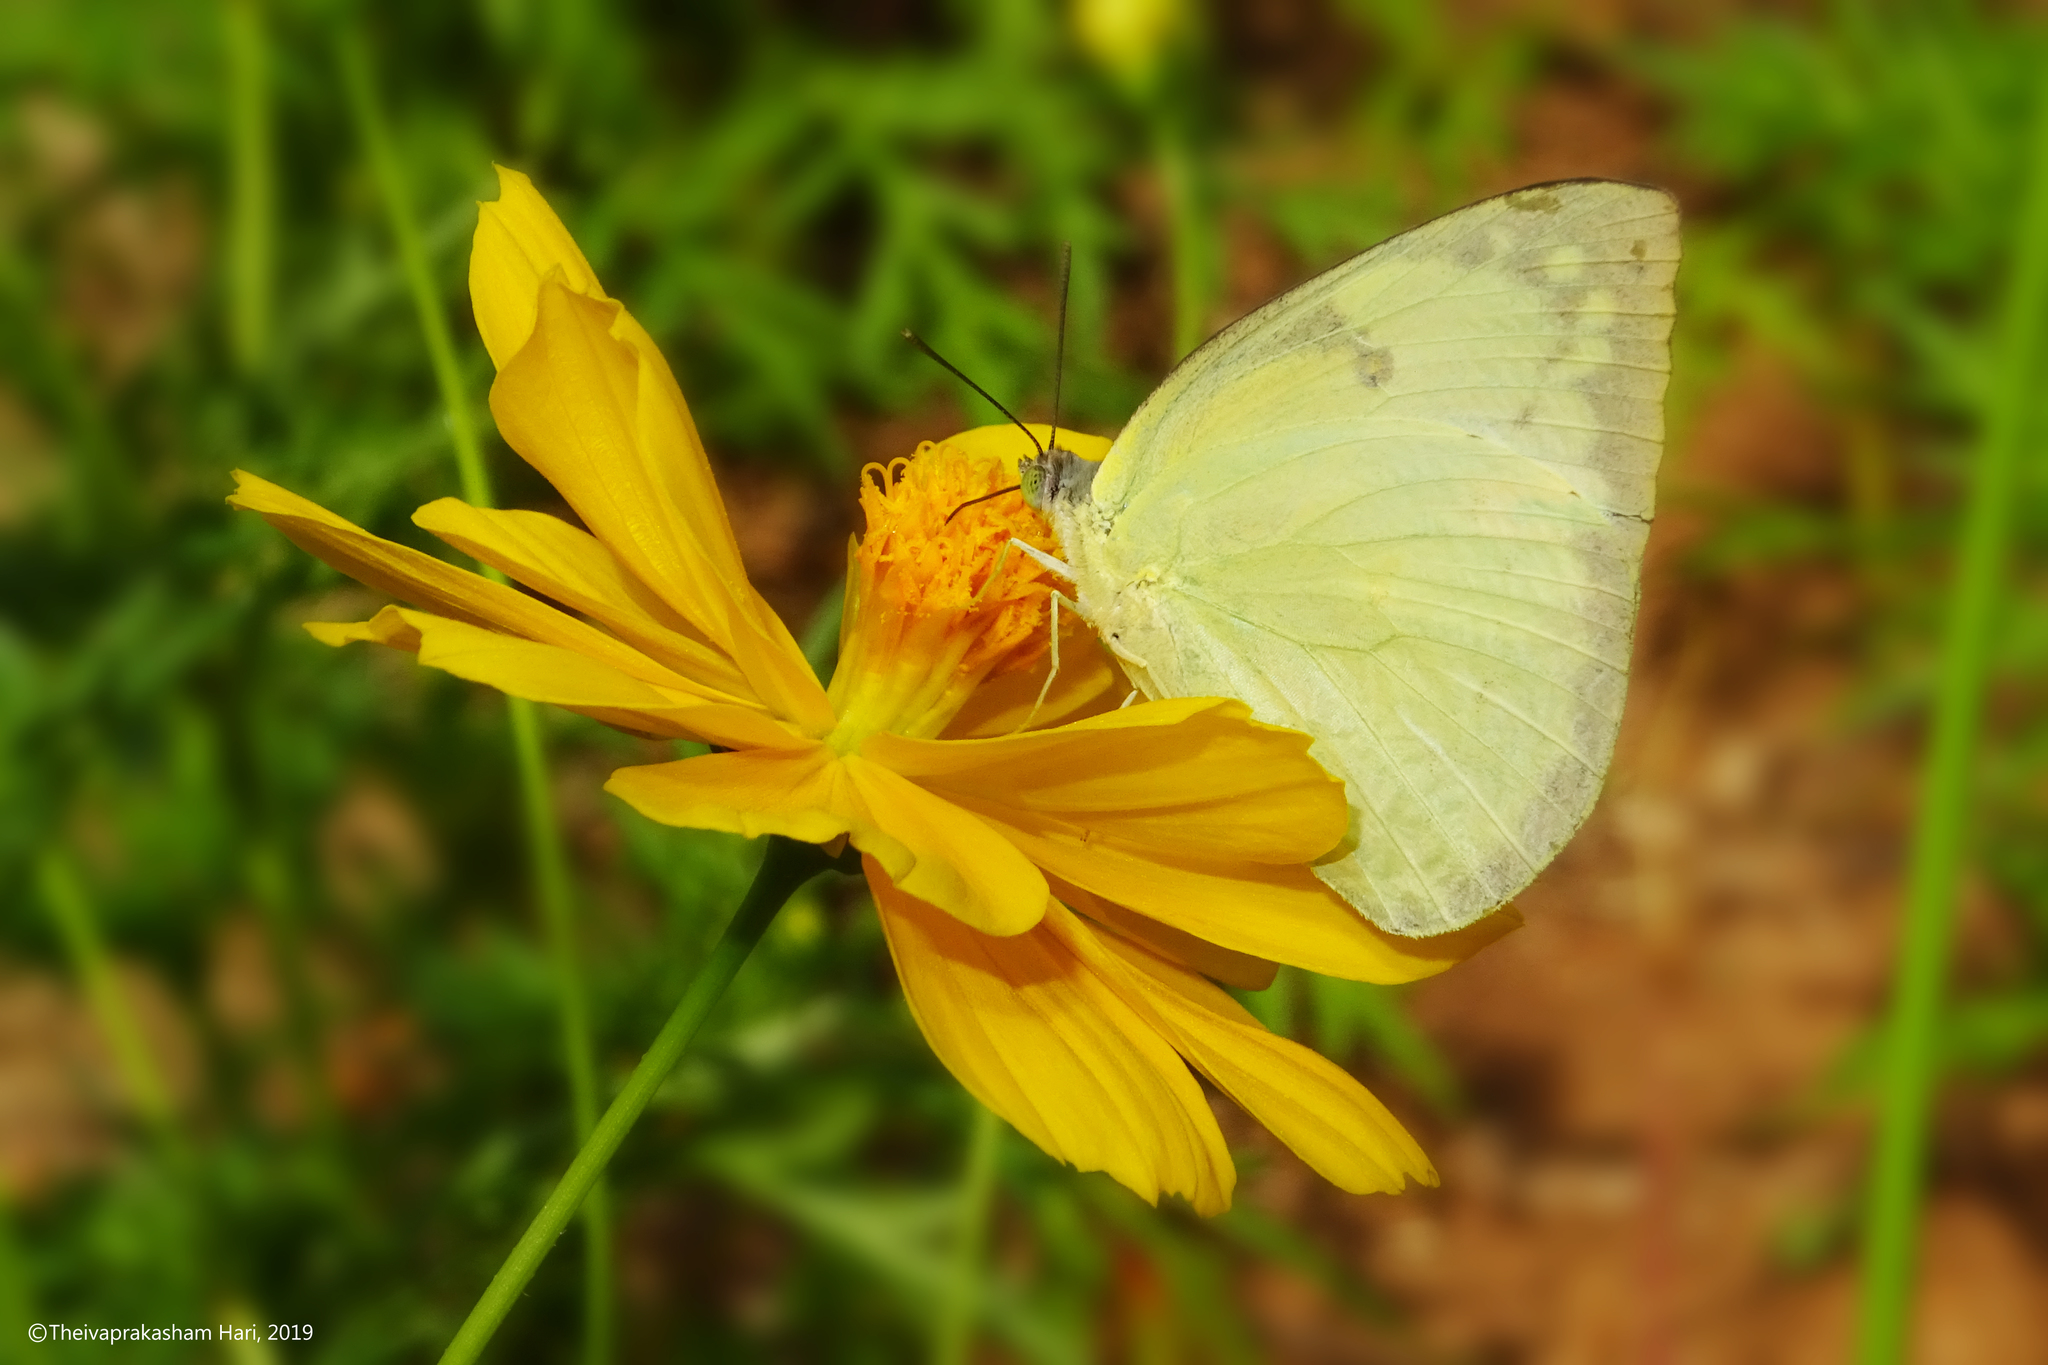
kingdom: Animalia
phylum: Arthropoda
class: Insecta
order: Lepidoptera
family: Pieridae
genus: Catopsilia
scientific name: Catopsilia pomona
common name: Common emigrant
